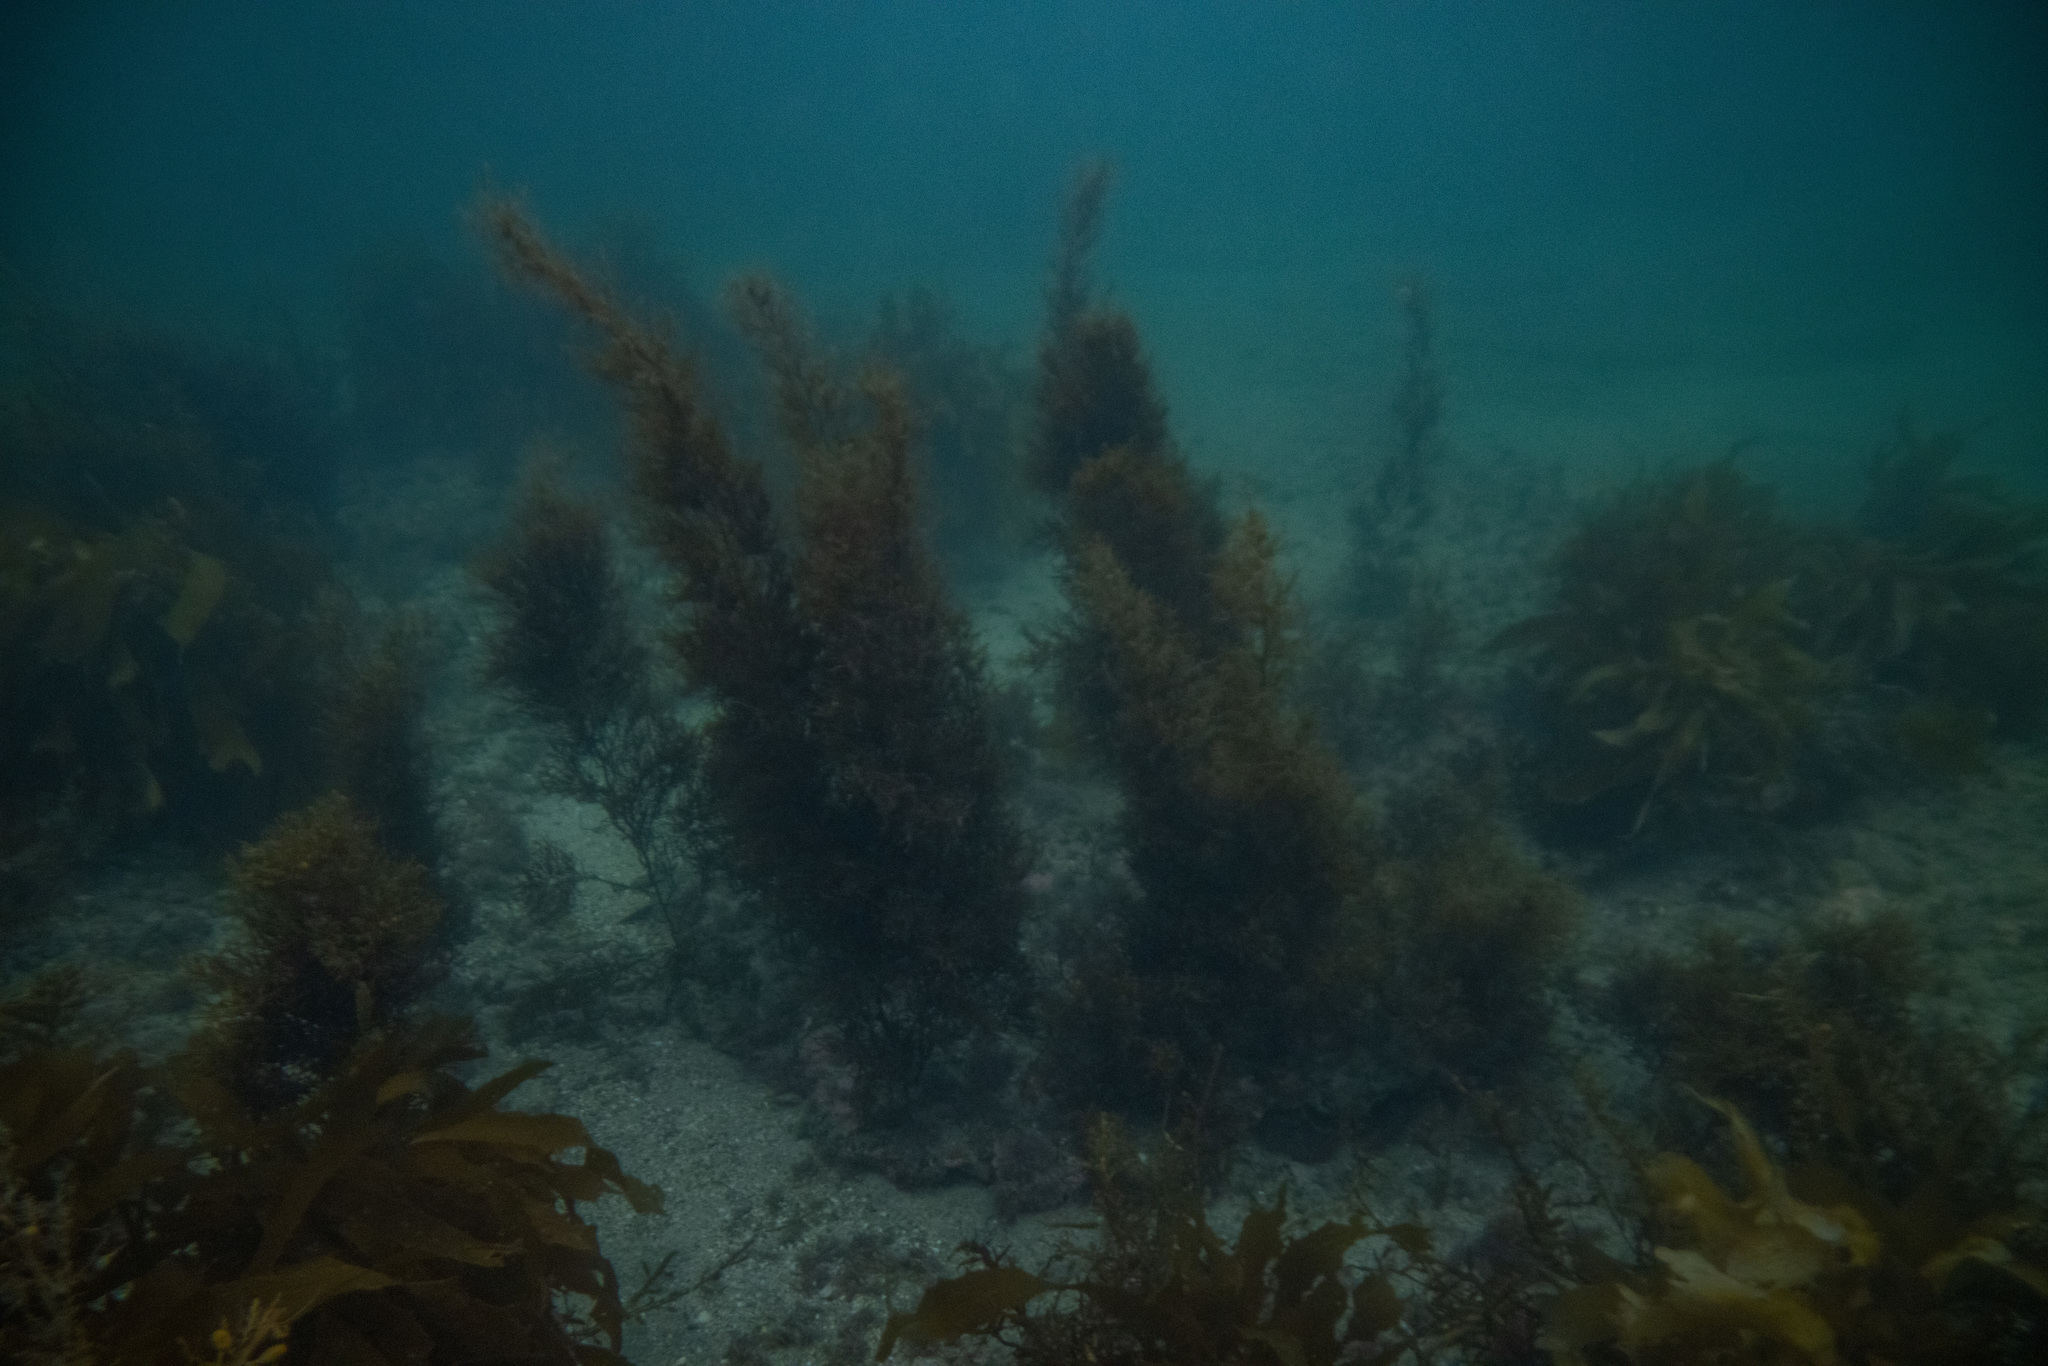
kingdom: Chromista
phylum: Ochrophyta
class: Phaeophyceae
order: Fucales
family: Sargassaceae
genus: Cystophora
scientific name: Cystophora retroflexa
